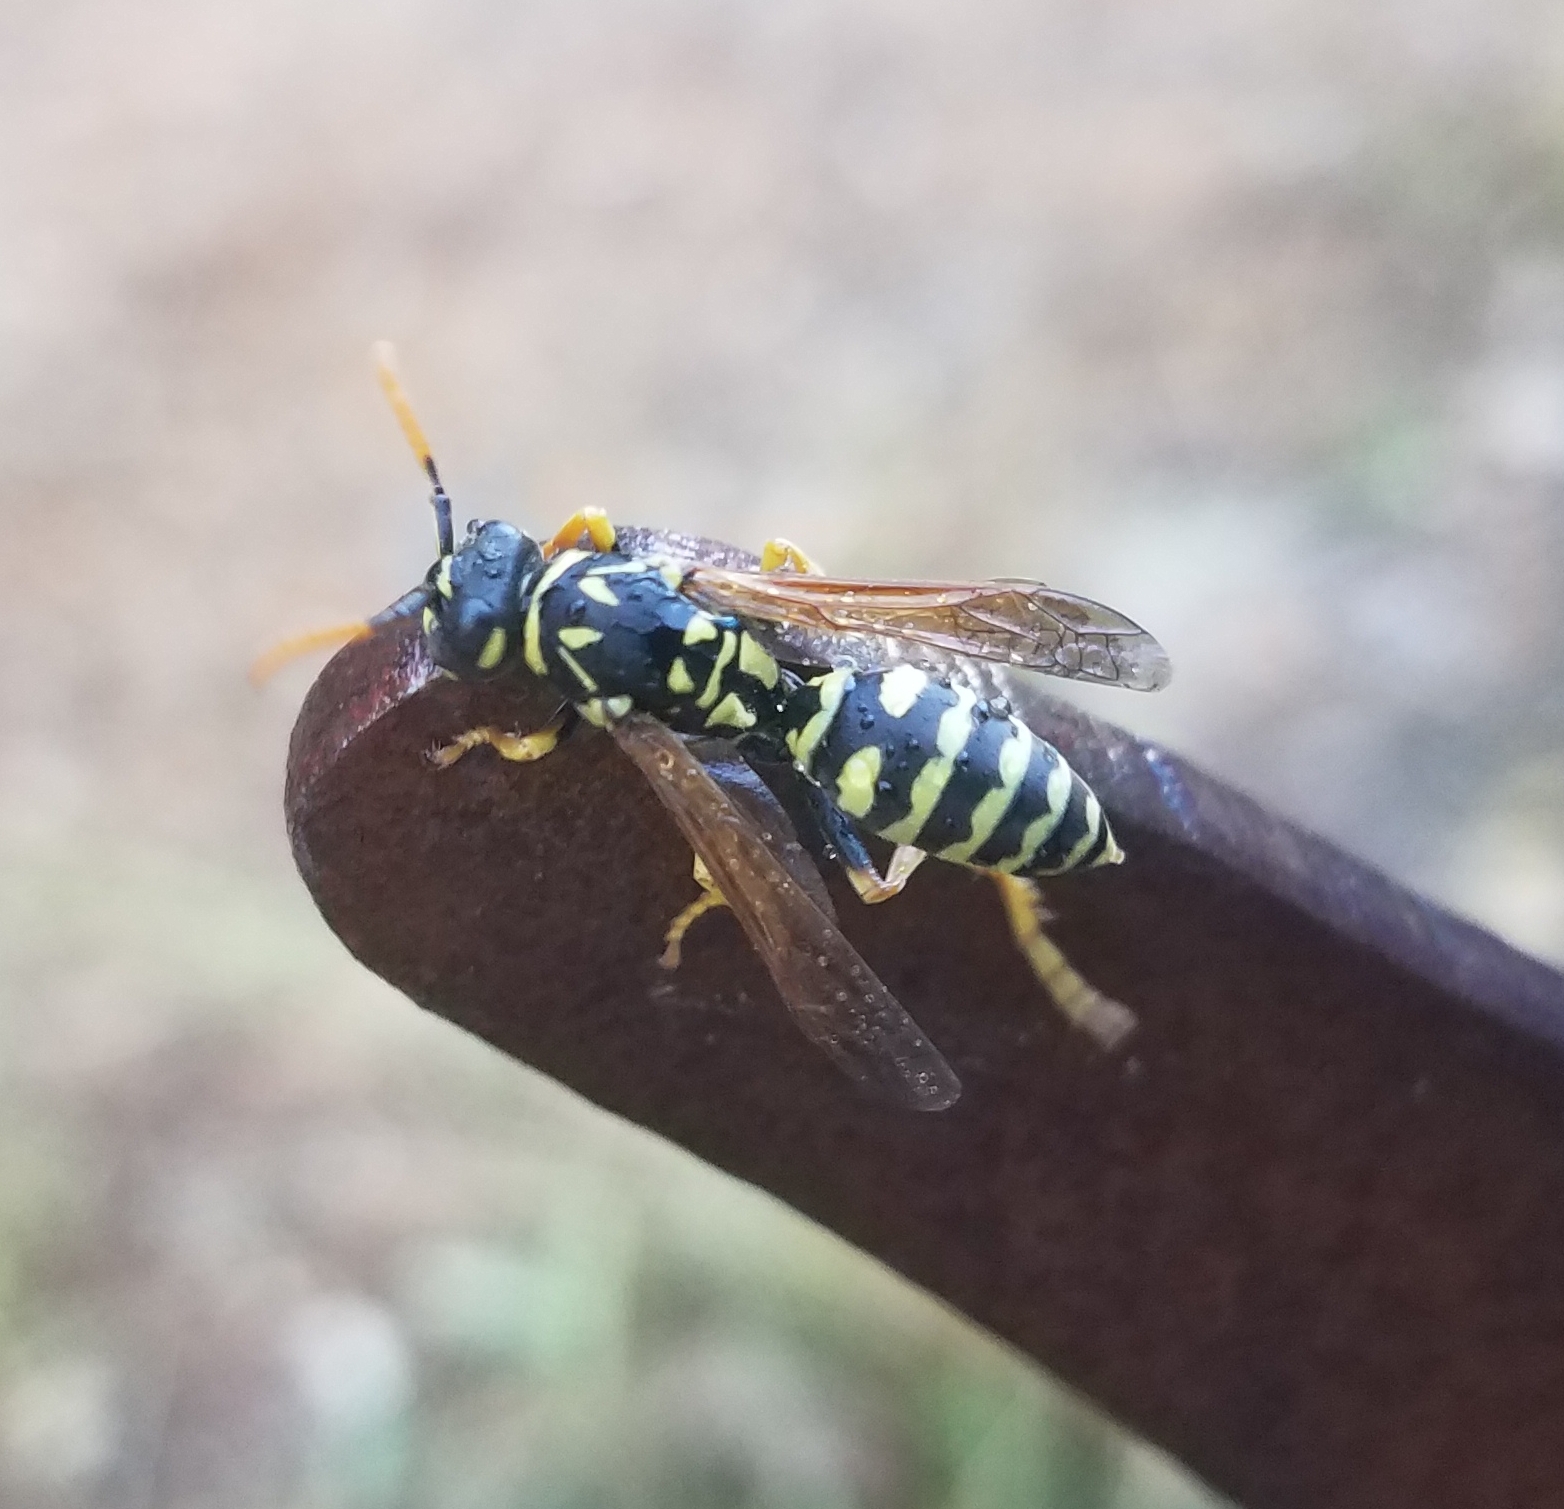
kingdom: Animalia
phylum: Arthropoda
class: Insecta
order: Hymenoptera
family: Eumenidae
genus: Polistes
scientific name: Polistes dominula
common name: Paper wasp
